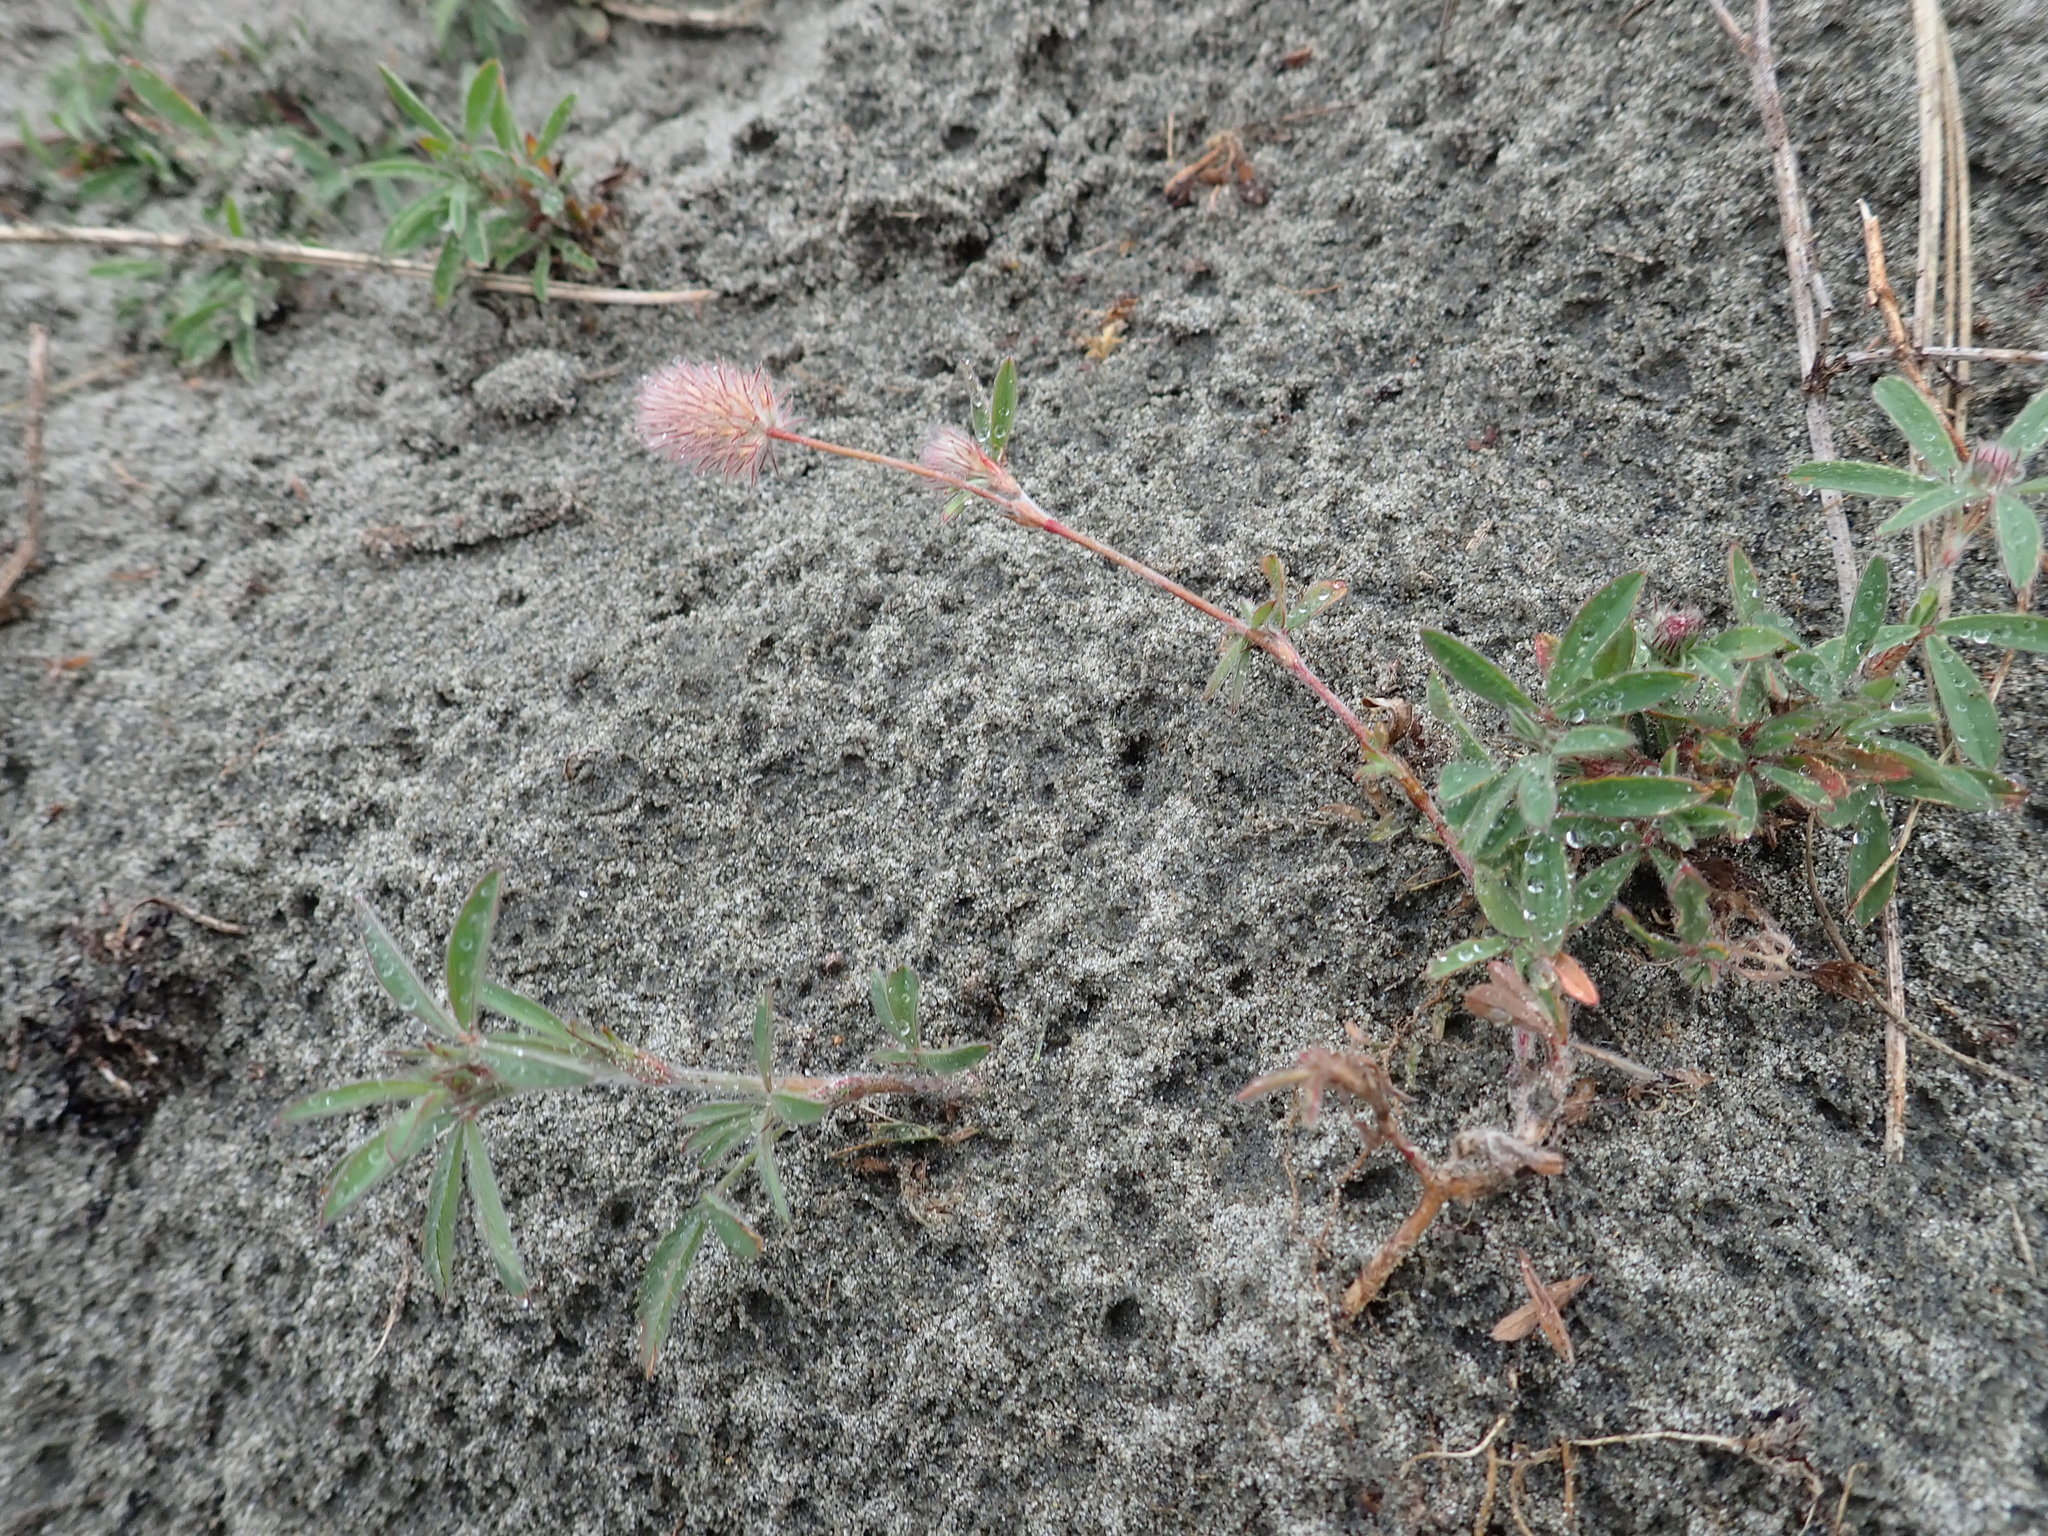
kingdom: Plantae
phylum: Tracheophyta
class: Magnoliopsida
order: Fabales
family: Fabaceae
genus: Trifolium
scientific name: Trifolium arvense
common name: Hare's-foot clover
